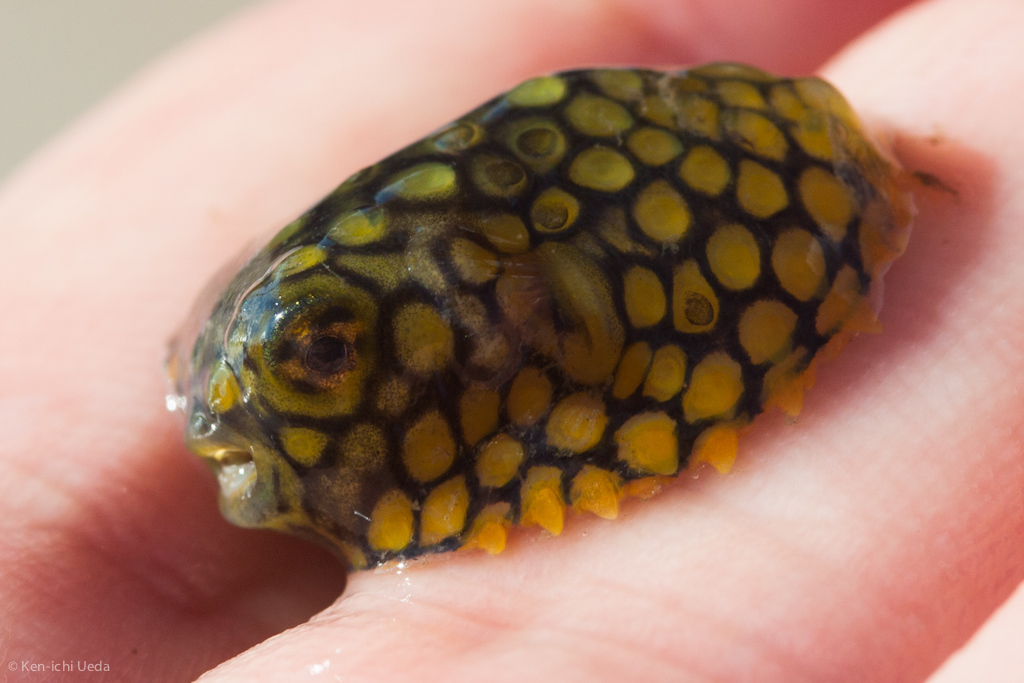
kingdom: Animalia
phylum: Chordata
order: Tetraodontiformes
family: Diodontidae
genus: Chilomycterus
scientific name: Chilomycterus schoepfii
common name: Striped burrfish
